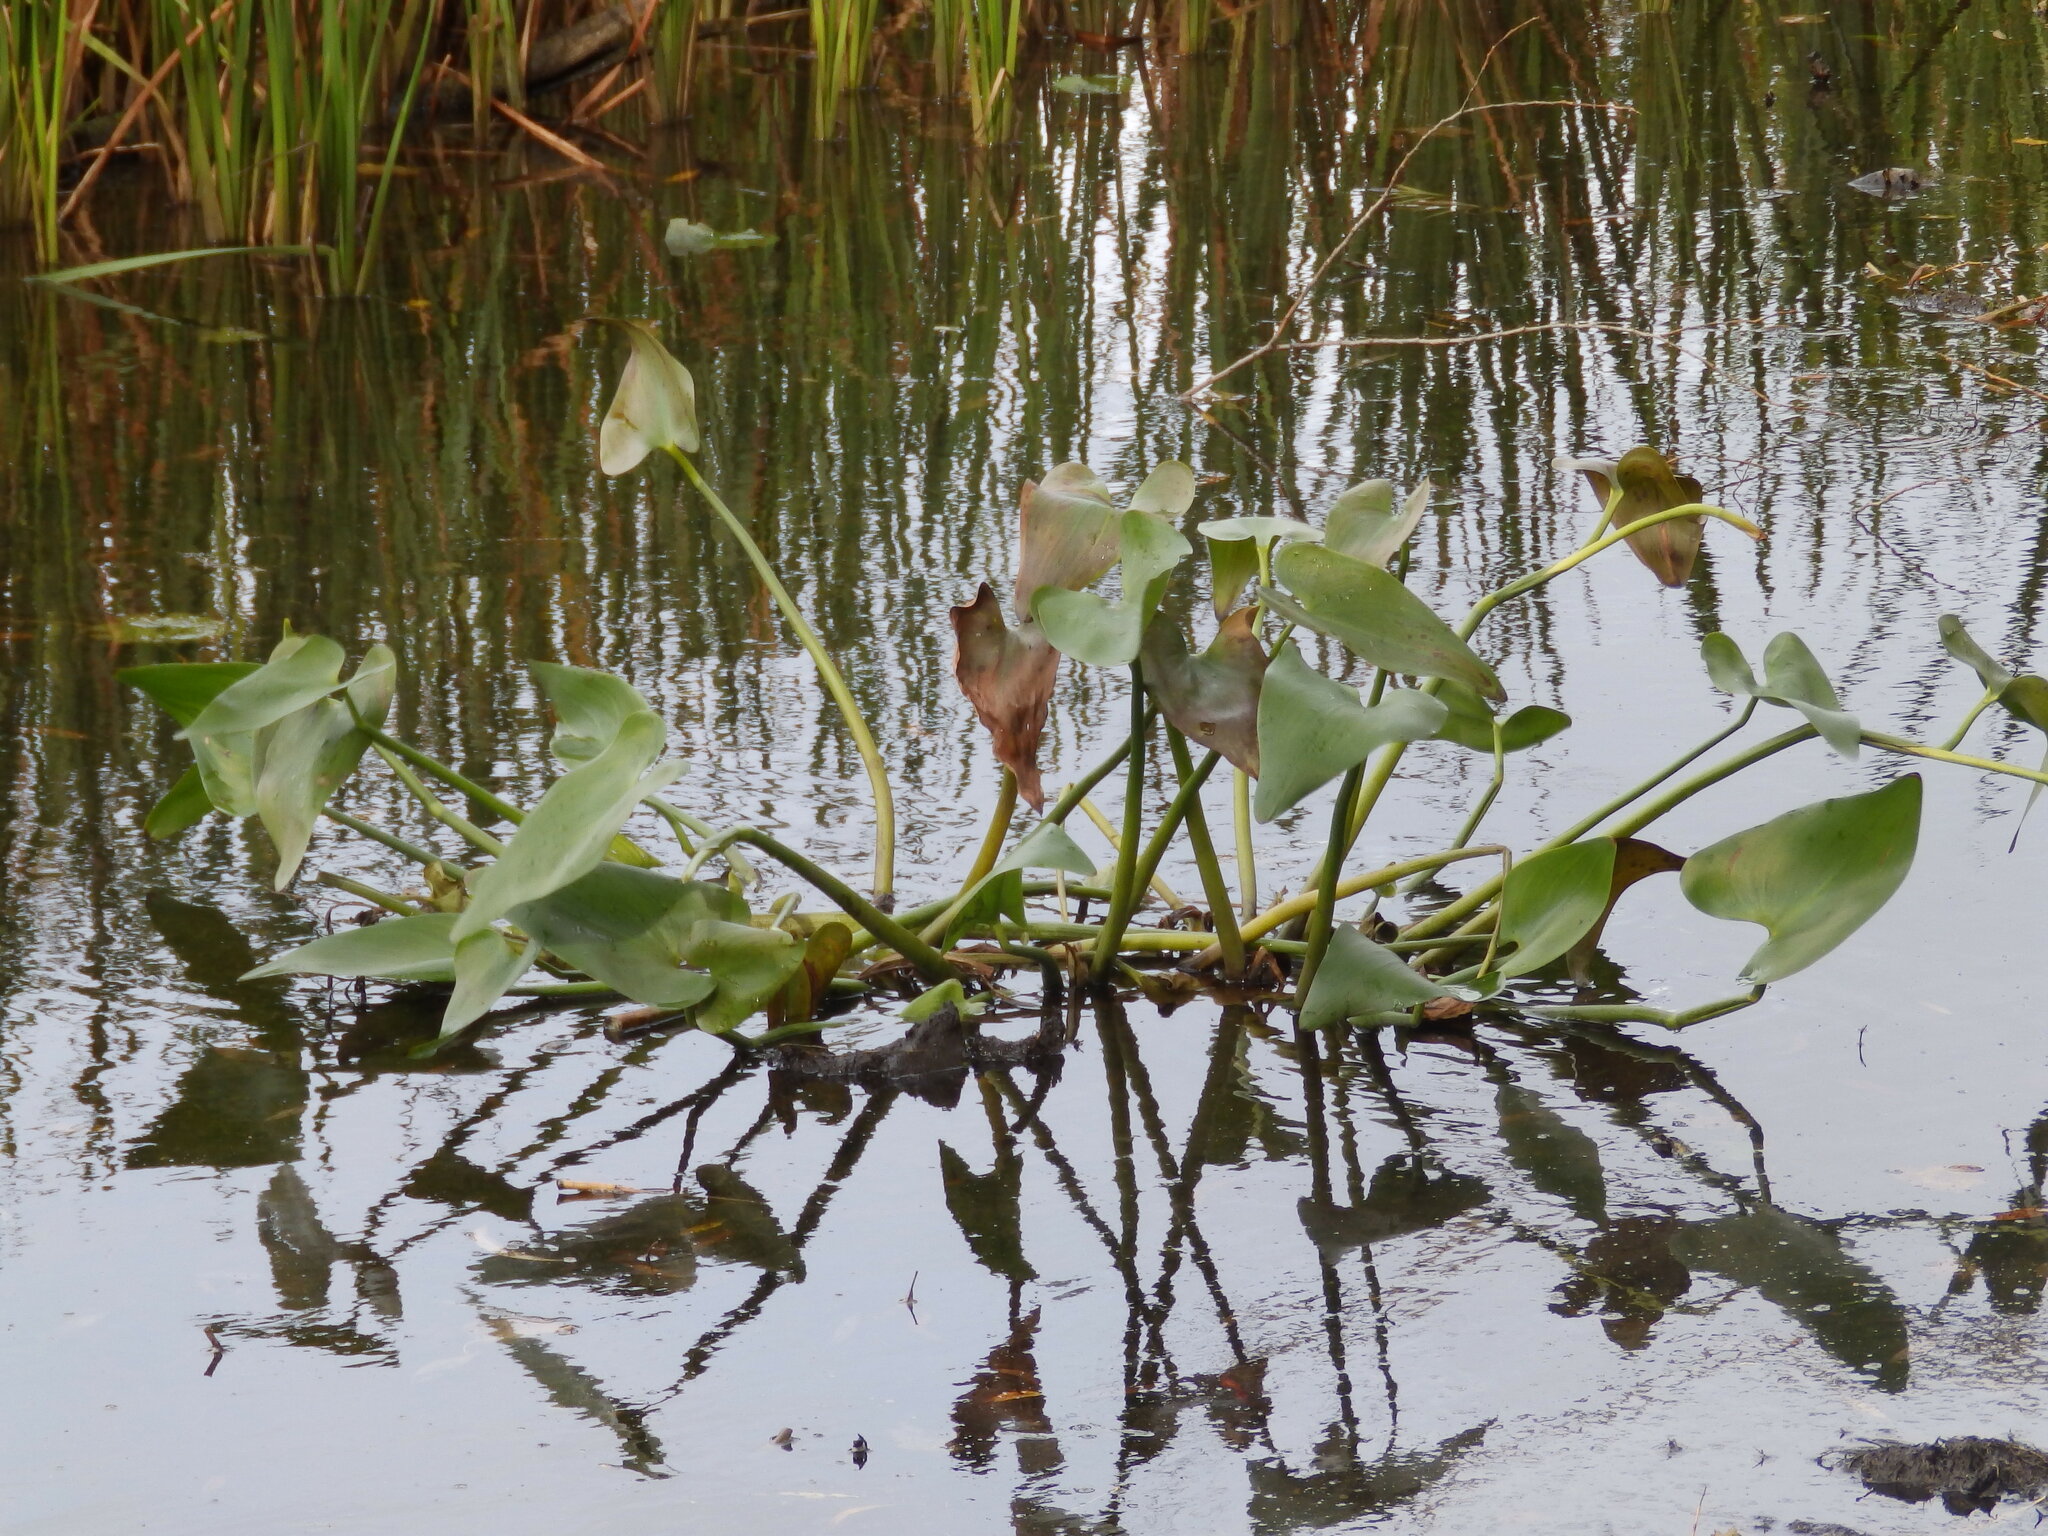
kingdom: Plantae
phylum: Tracheophyta
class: Liliopsida
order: Commelinales
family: Pontederiaceae
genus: Pontederia
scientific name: Pontederia cordata
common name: Pickerelweed
